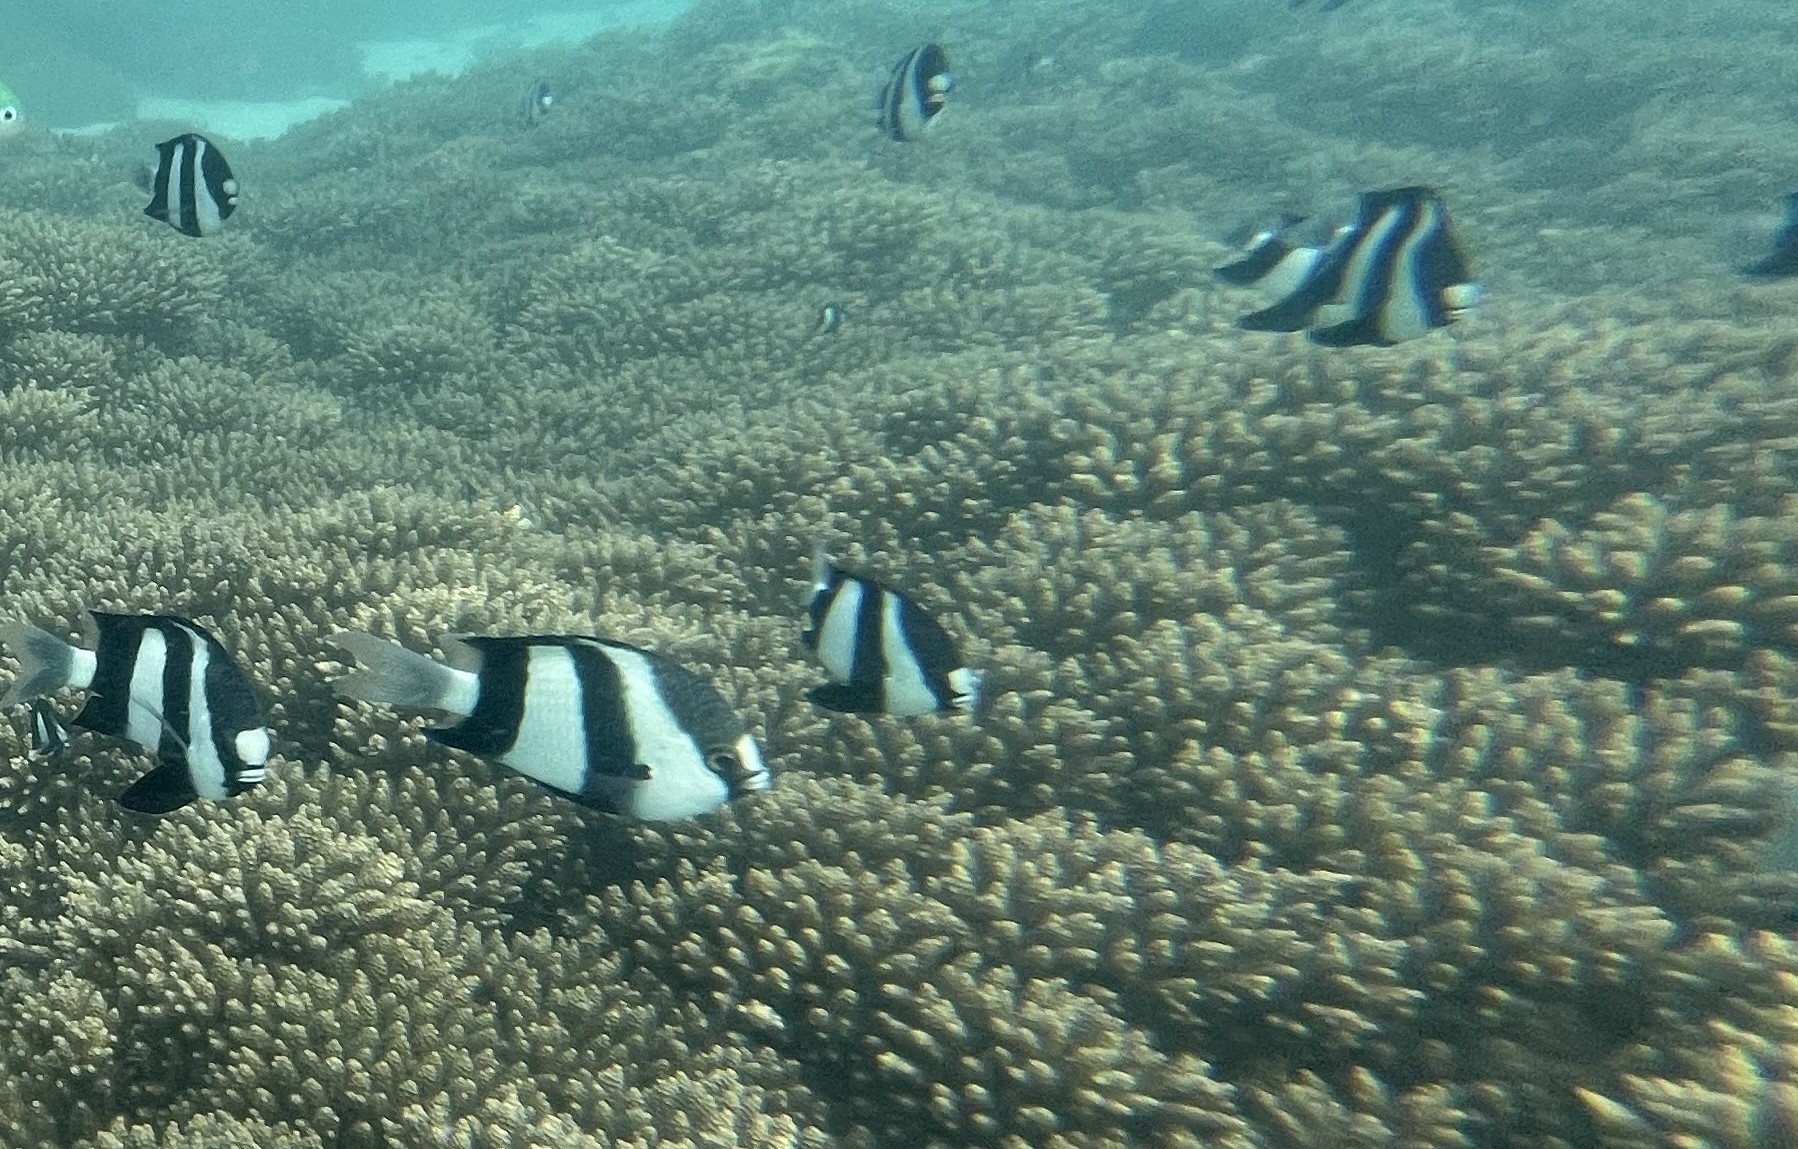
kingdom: Animalia
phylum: Chordata
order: Perciformes
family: Pomacentridae
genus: Dascyllus
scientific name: Dascyllus abudafur
